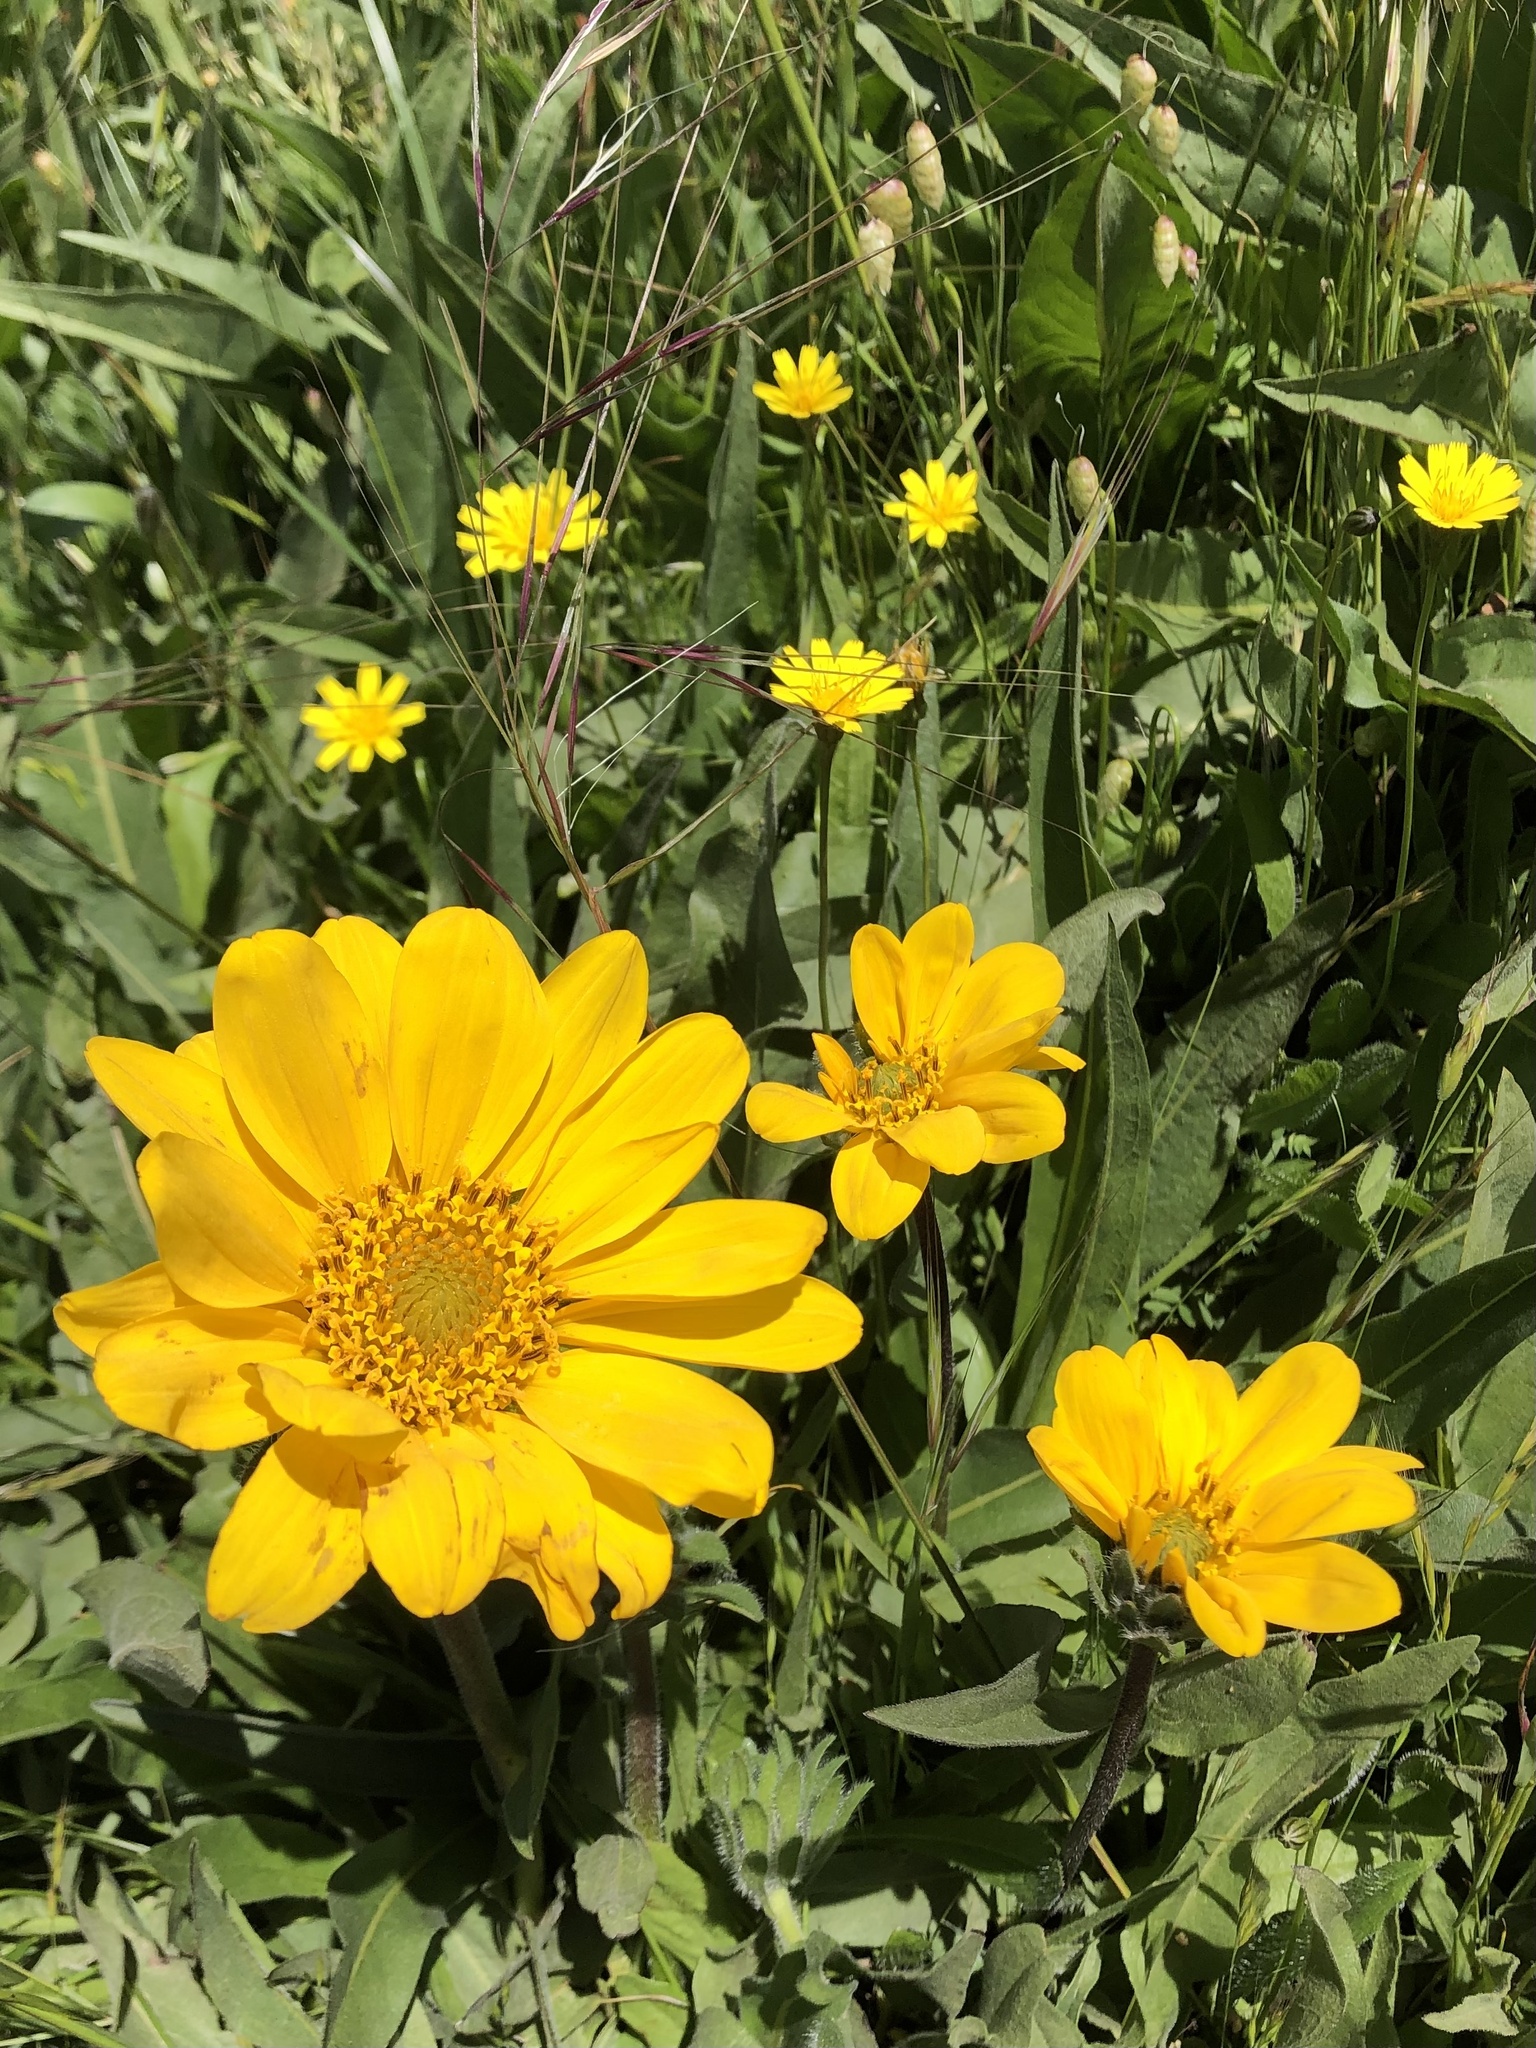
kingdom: Plantae
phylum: Tracheophyta
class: Magnoliopsida
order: Asterales
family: Asteraceae
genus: Wyethia
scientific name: Wyethia angustifolia
